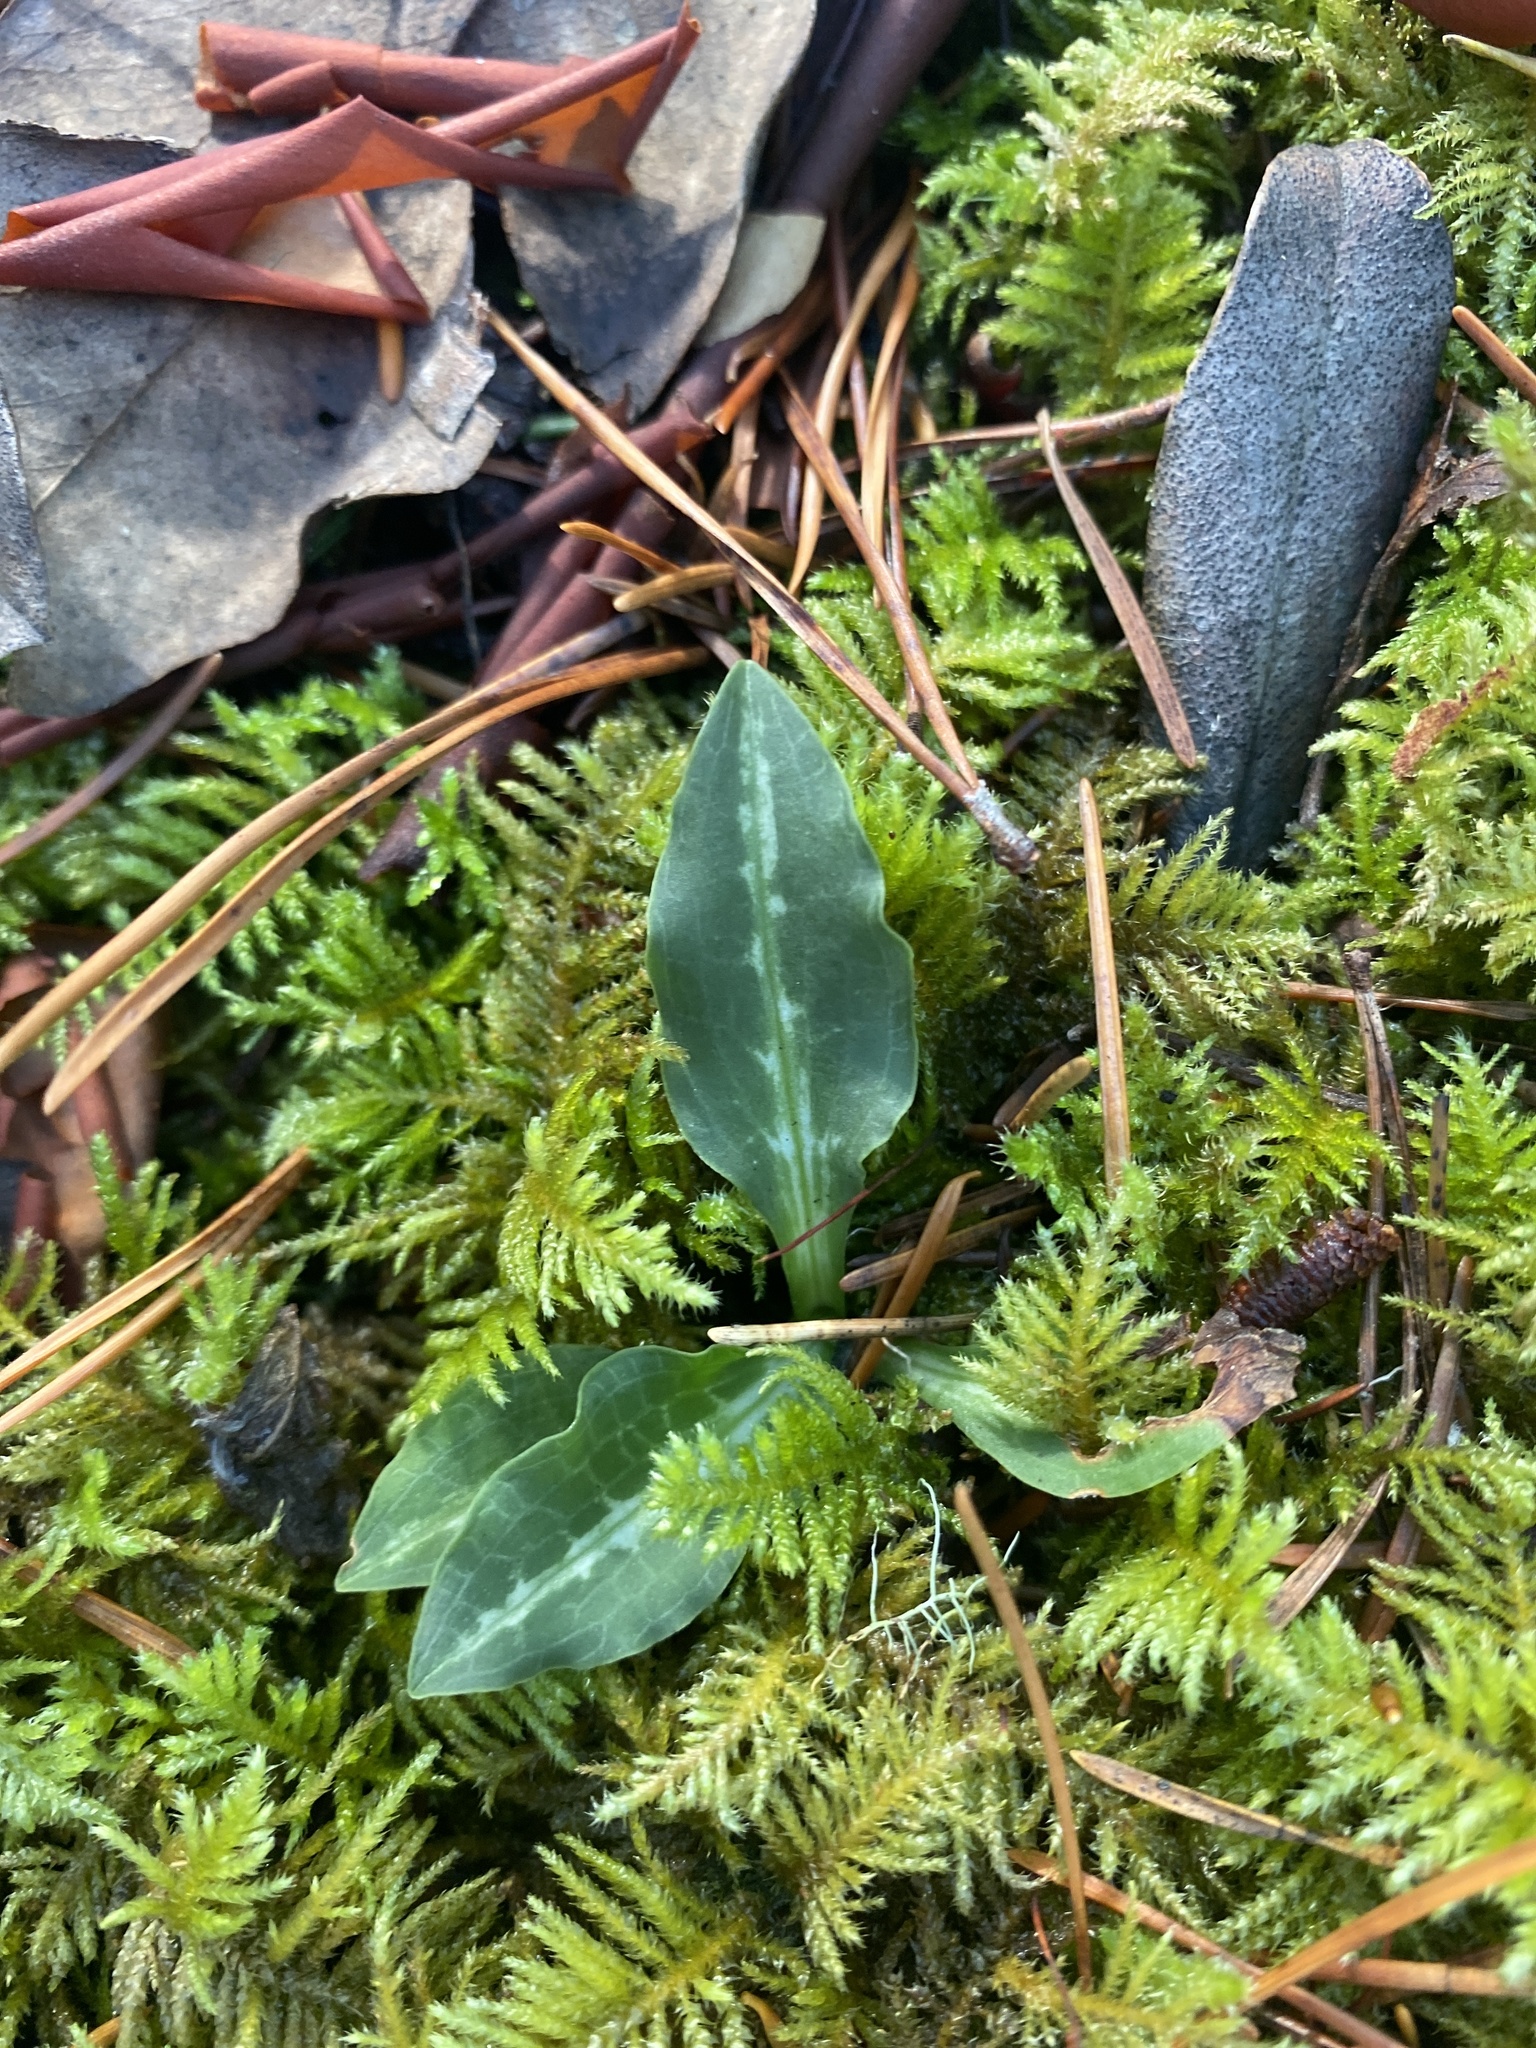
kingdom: Plantae
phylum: Tracheophyta
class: Liliopsida
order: Asparagales
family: Orchidaceae
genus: Goodyera
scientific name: Goodyera oblongifolia
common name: Giant rattlesnake-plantain
